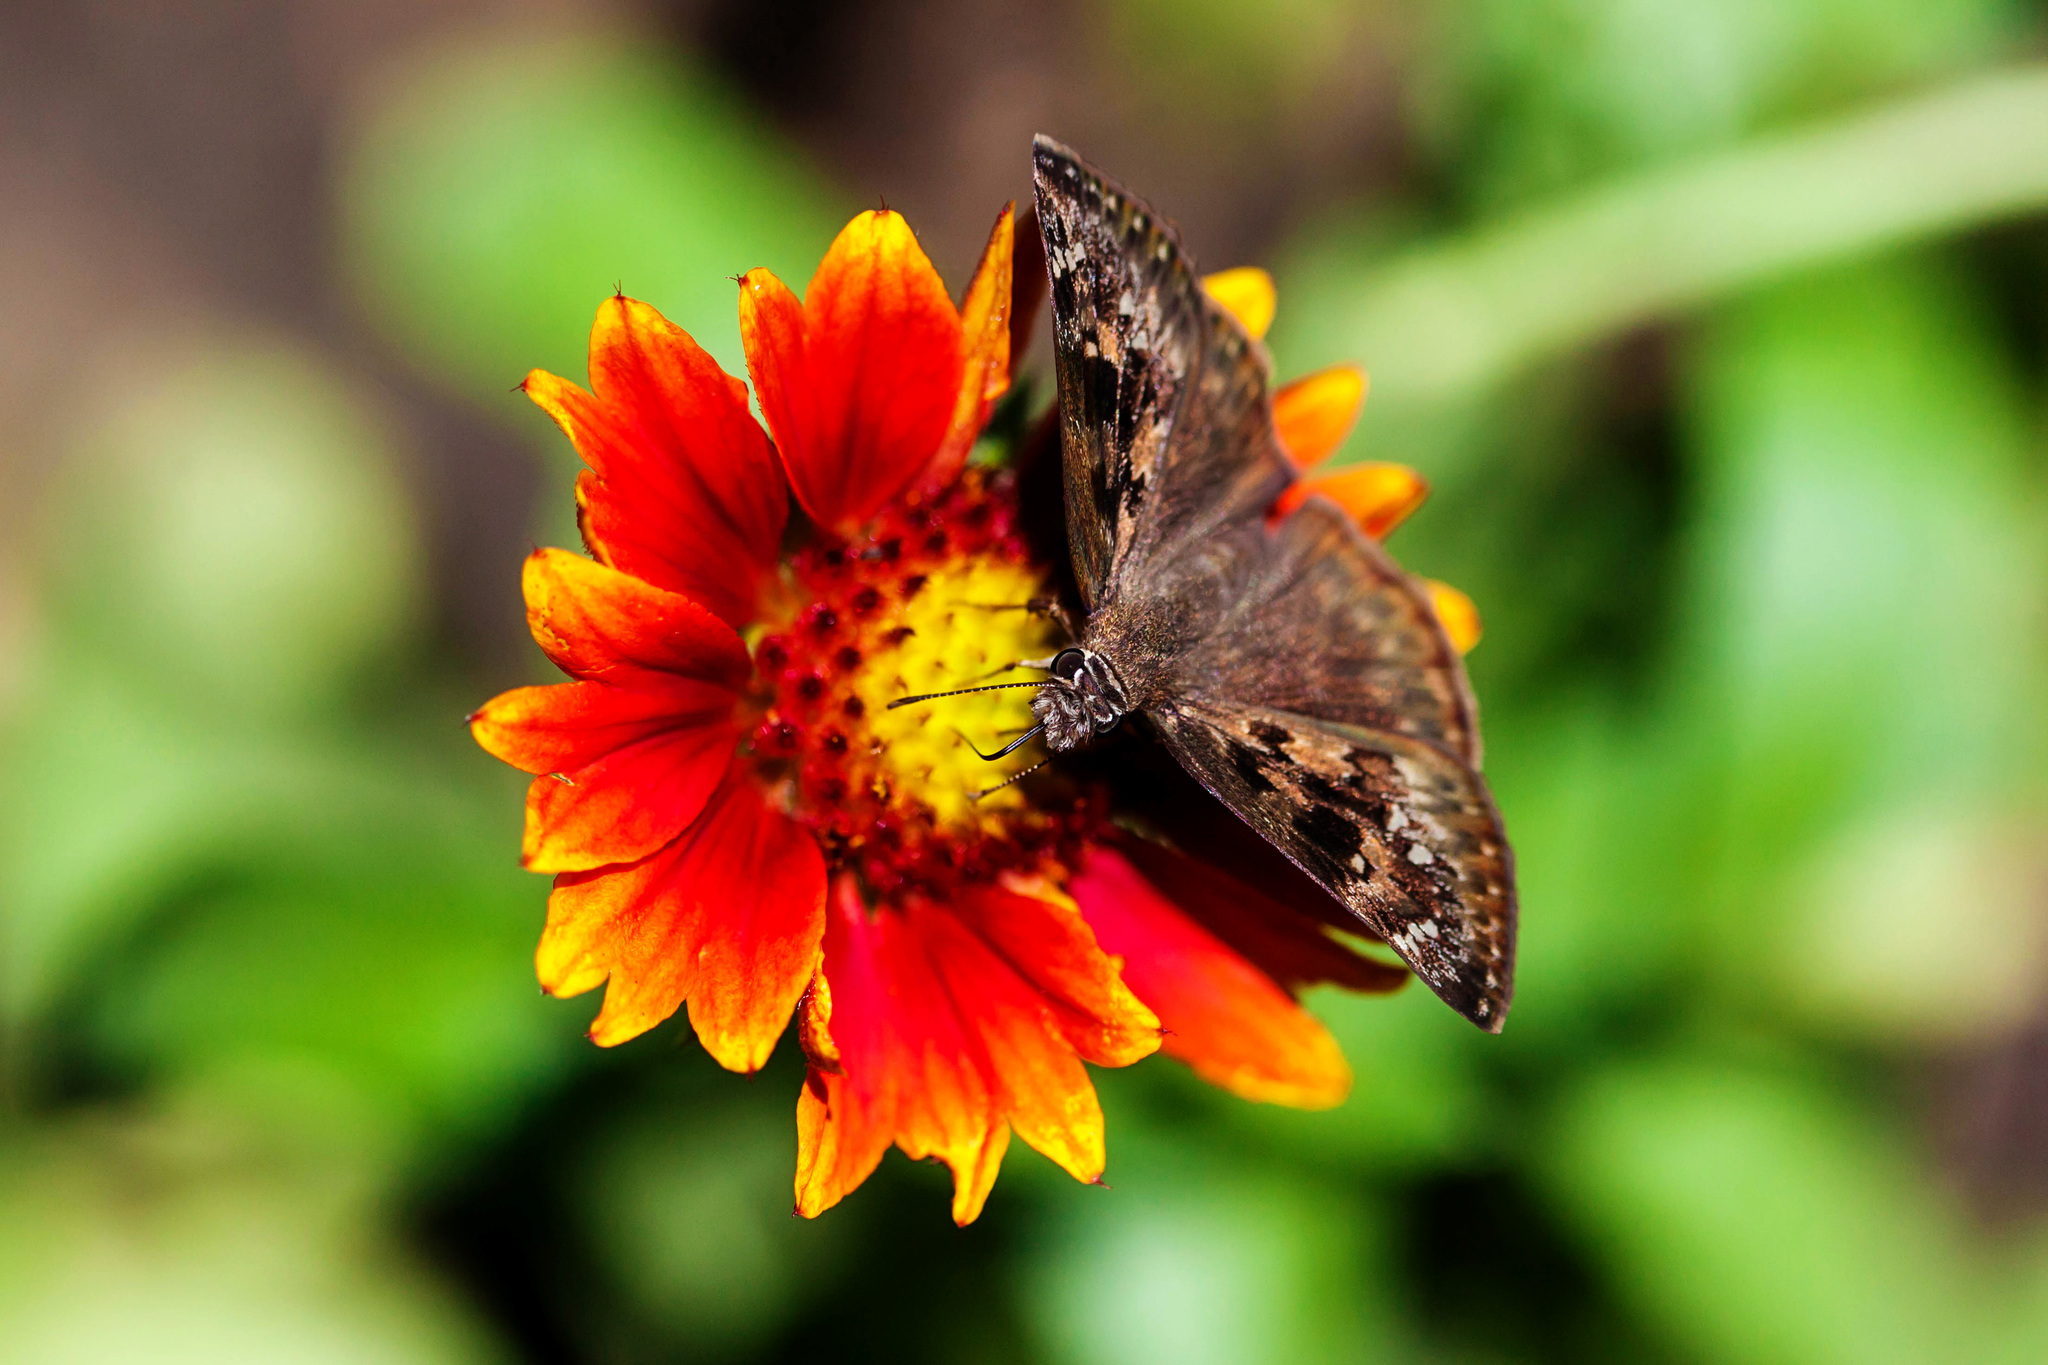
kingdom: Animalia
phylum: Arthropoda
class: Insecta
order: Lepidoptera
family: Hesperiidae
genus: Erynnis
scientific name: Erynnis horatius
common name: Horace's duskywing
